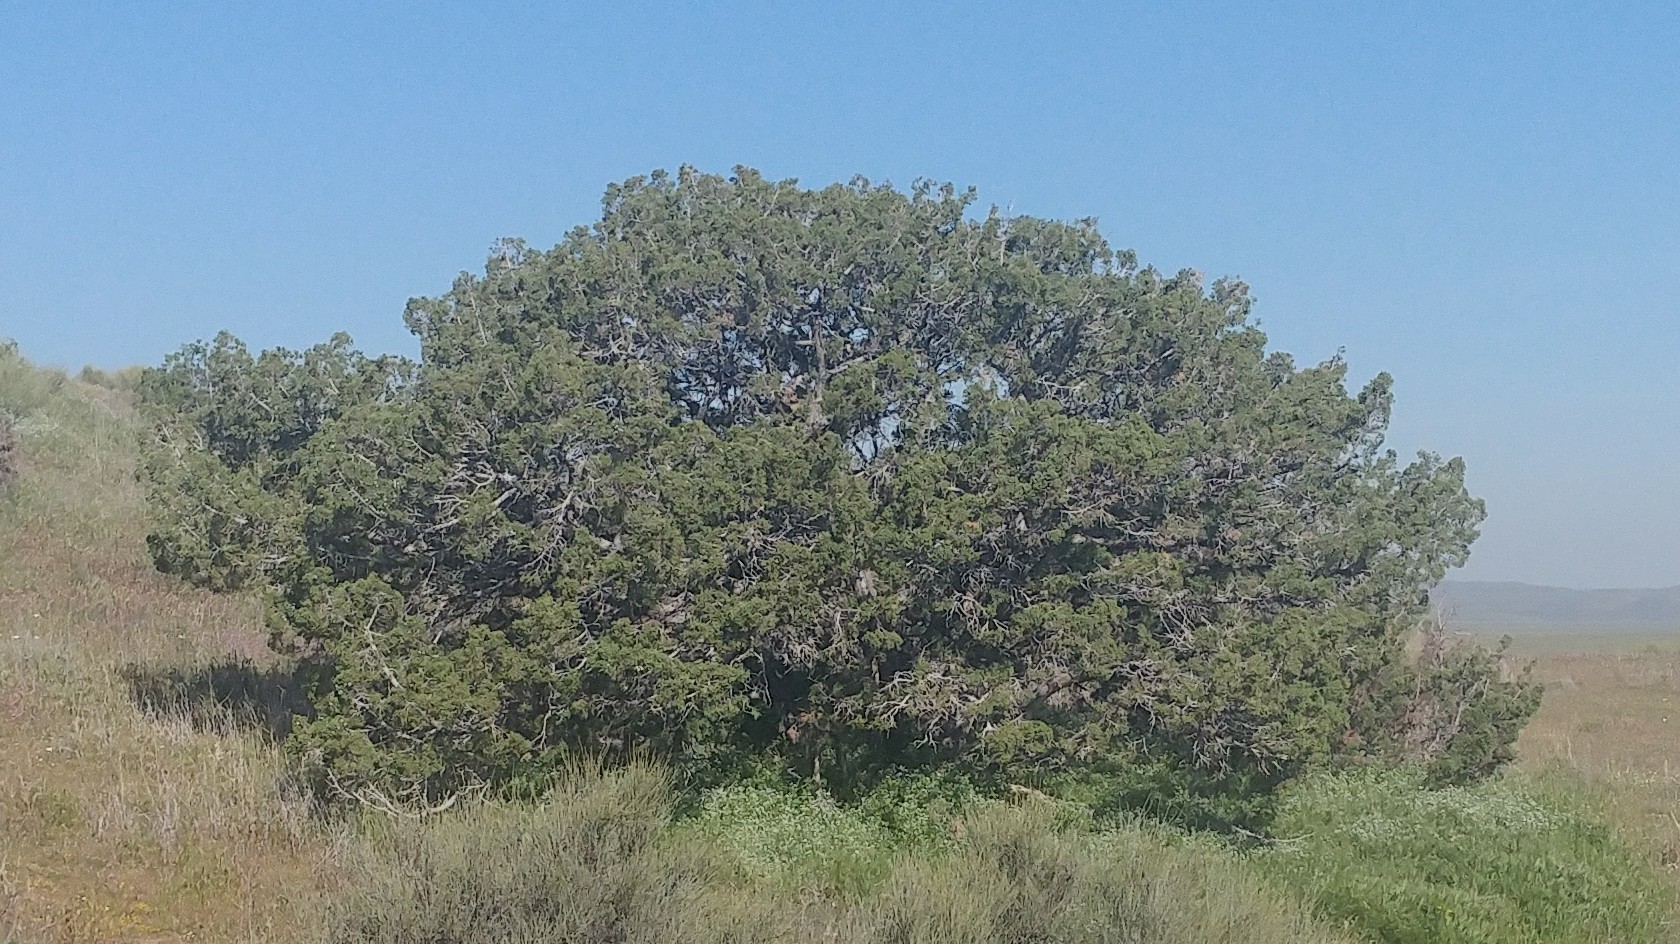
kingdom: Plantae
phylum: Tracheophyta
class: Pinopsida
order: Pinales
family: Cupressaceae
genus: Juniperus
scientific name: Juniperus californica
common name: California juniper
